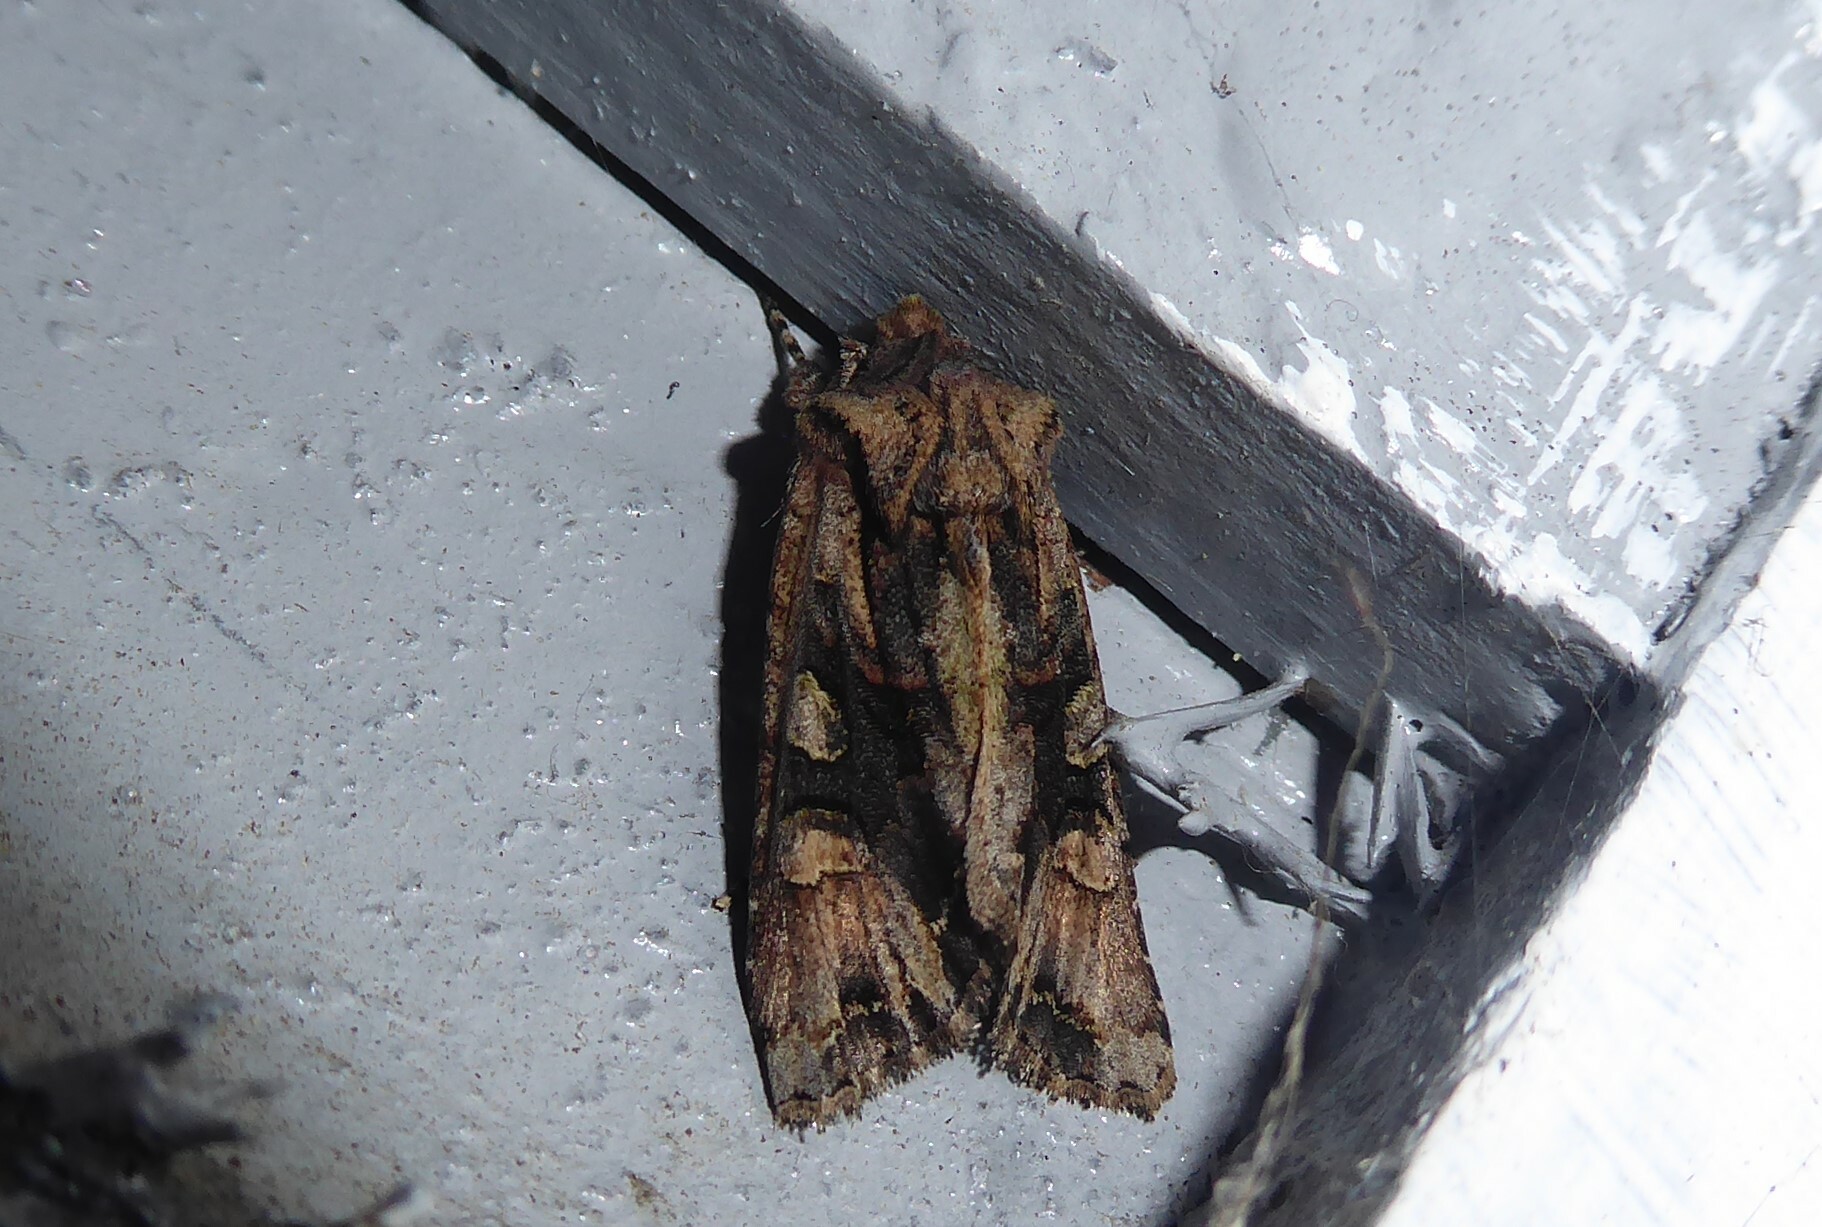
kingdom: Animalia
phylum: Arthropoda
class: Insecta
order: Lepidoptera
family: Noctuidae
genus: Ichneutica
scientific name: Ichneutica
